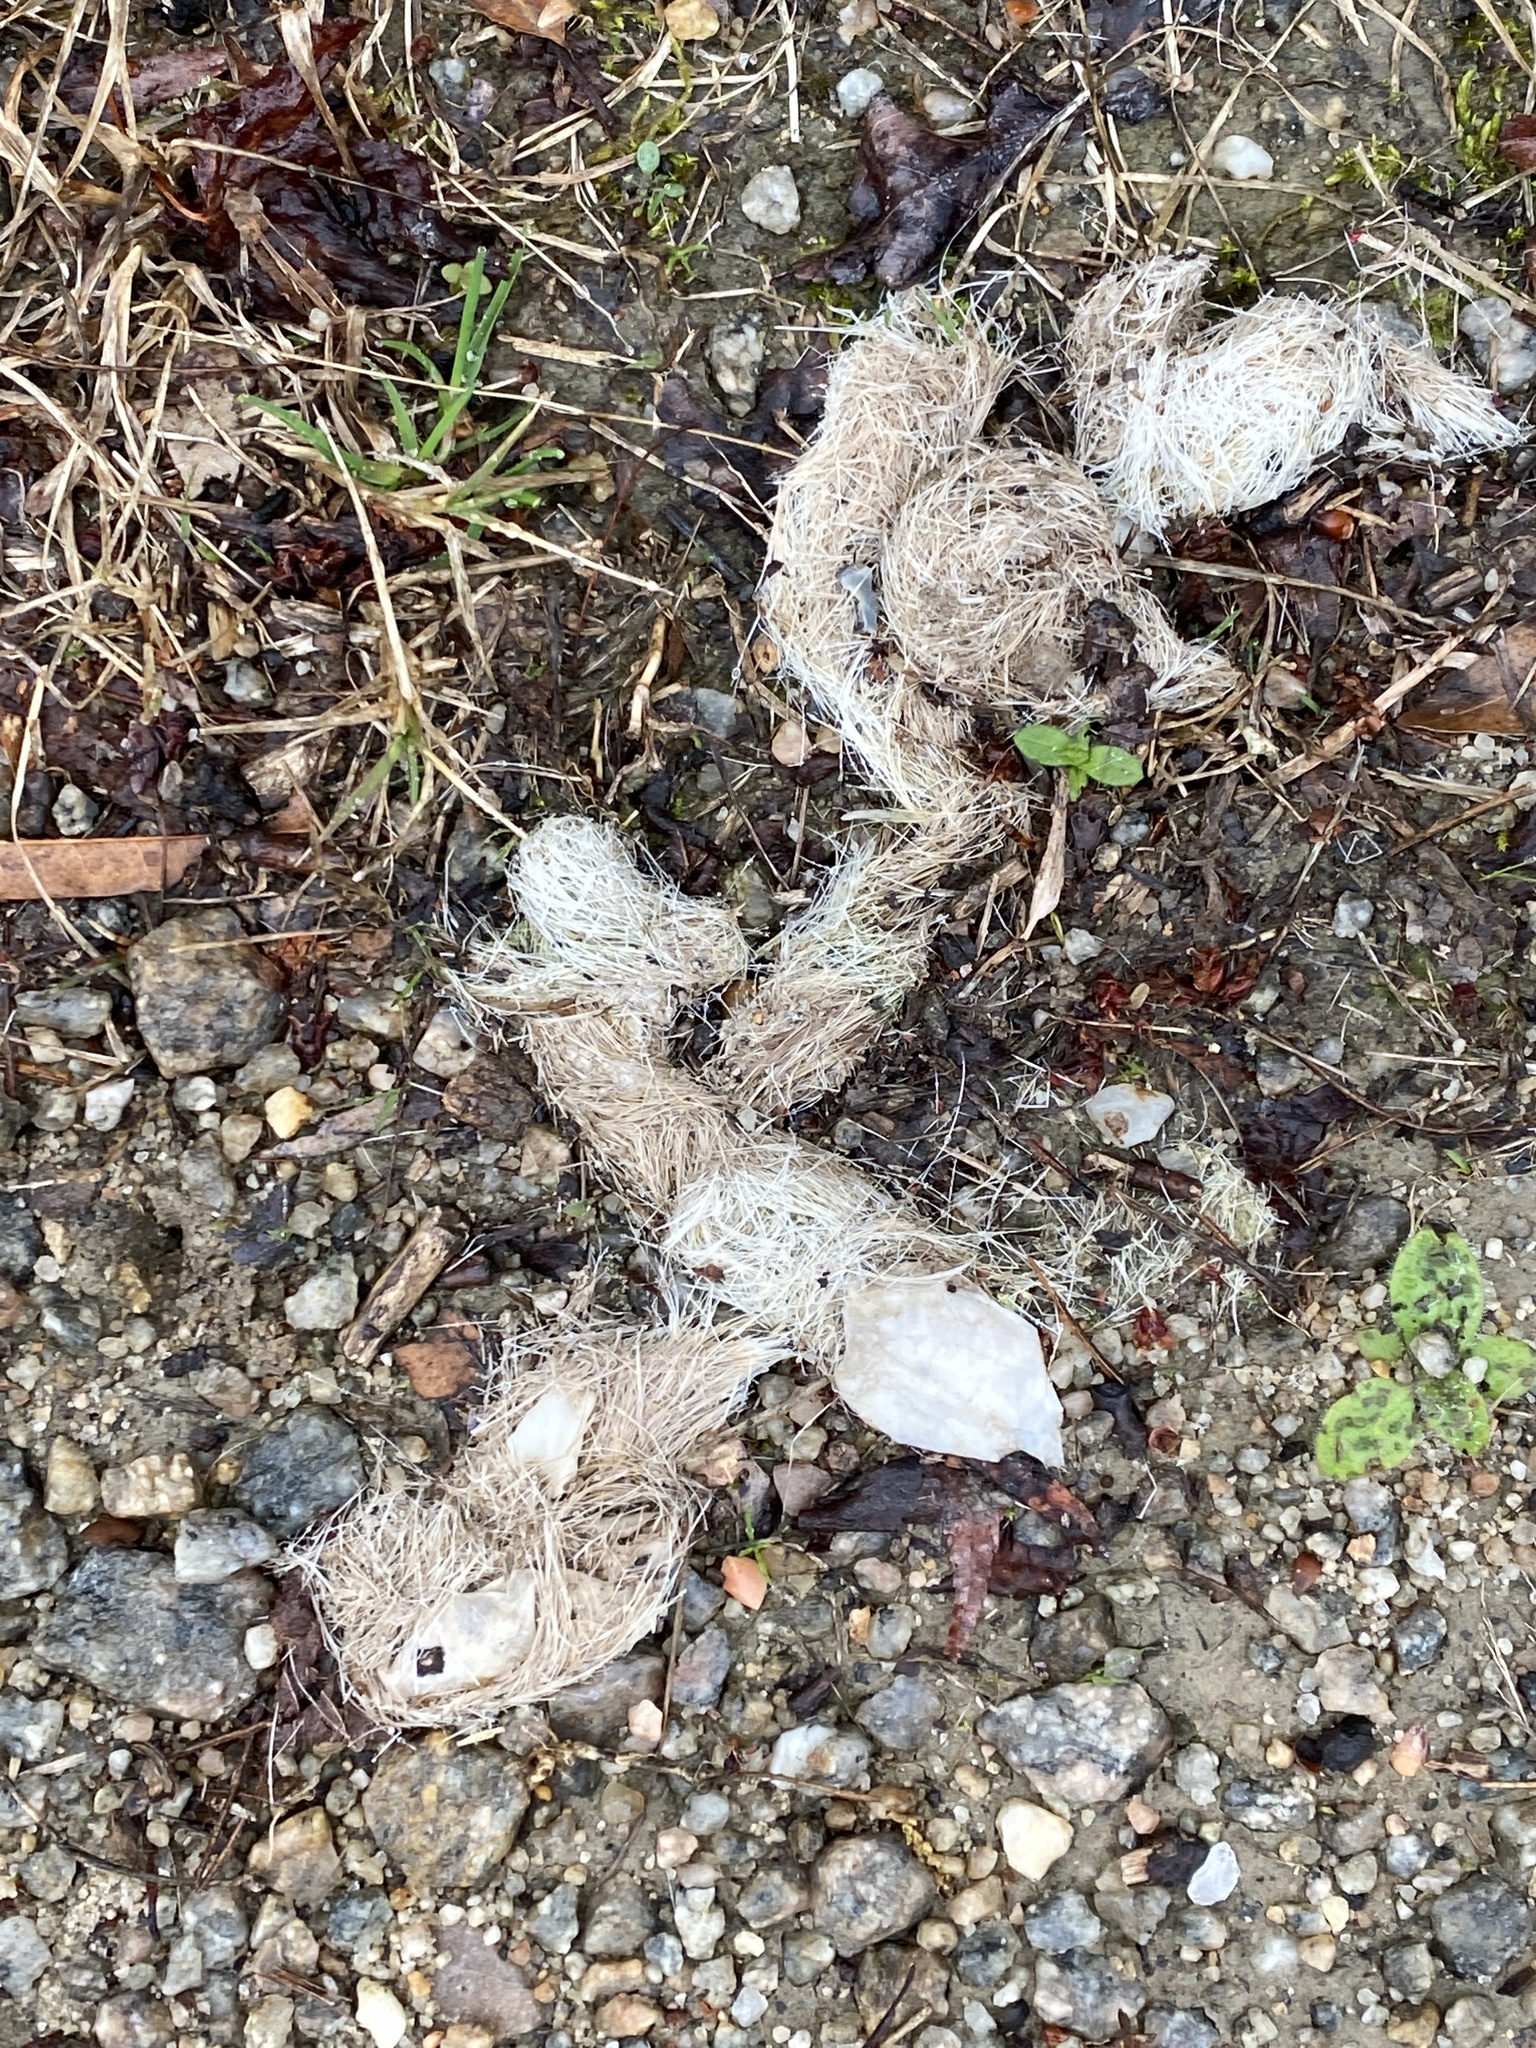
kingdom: Animalia
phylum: Chordata
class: Mammalia
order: Carnivora
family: Canidae
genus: Canis
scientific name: Canis latrans
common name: Coyote
